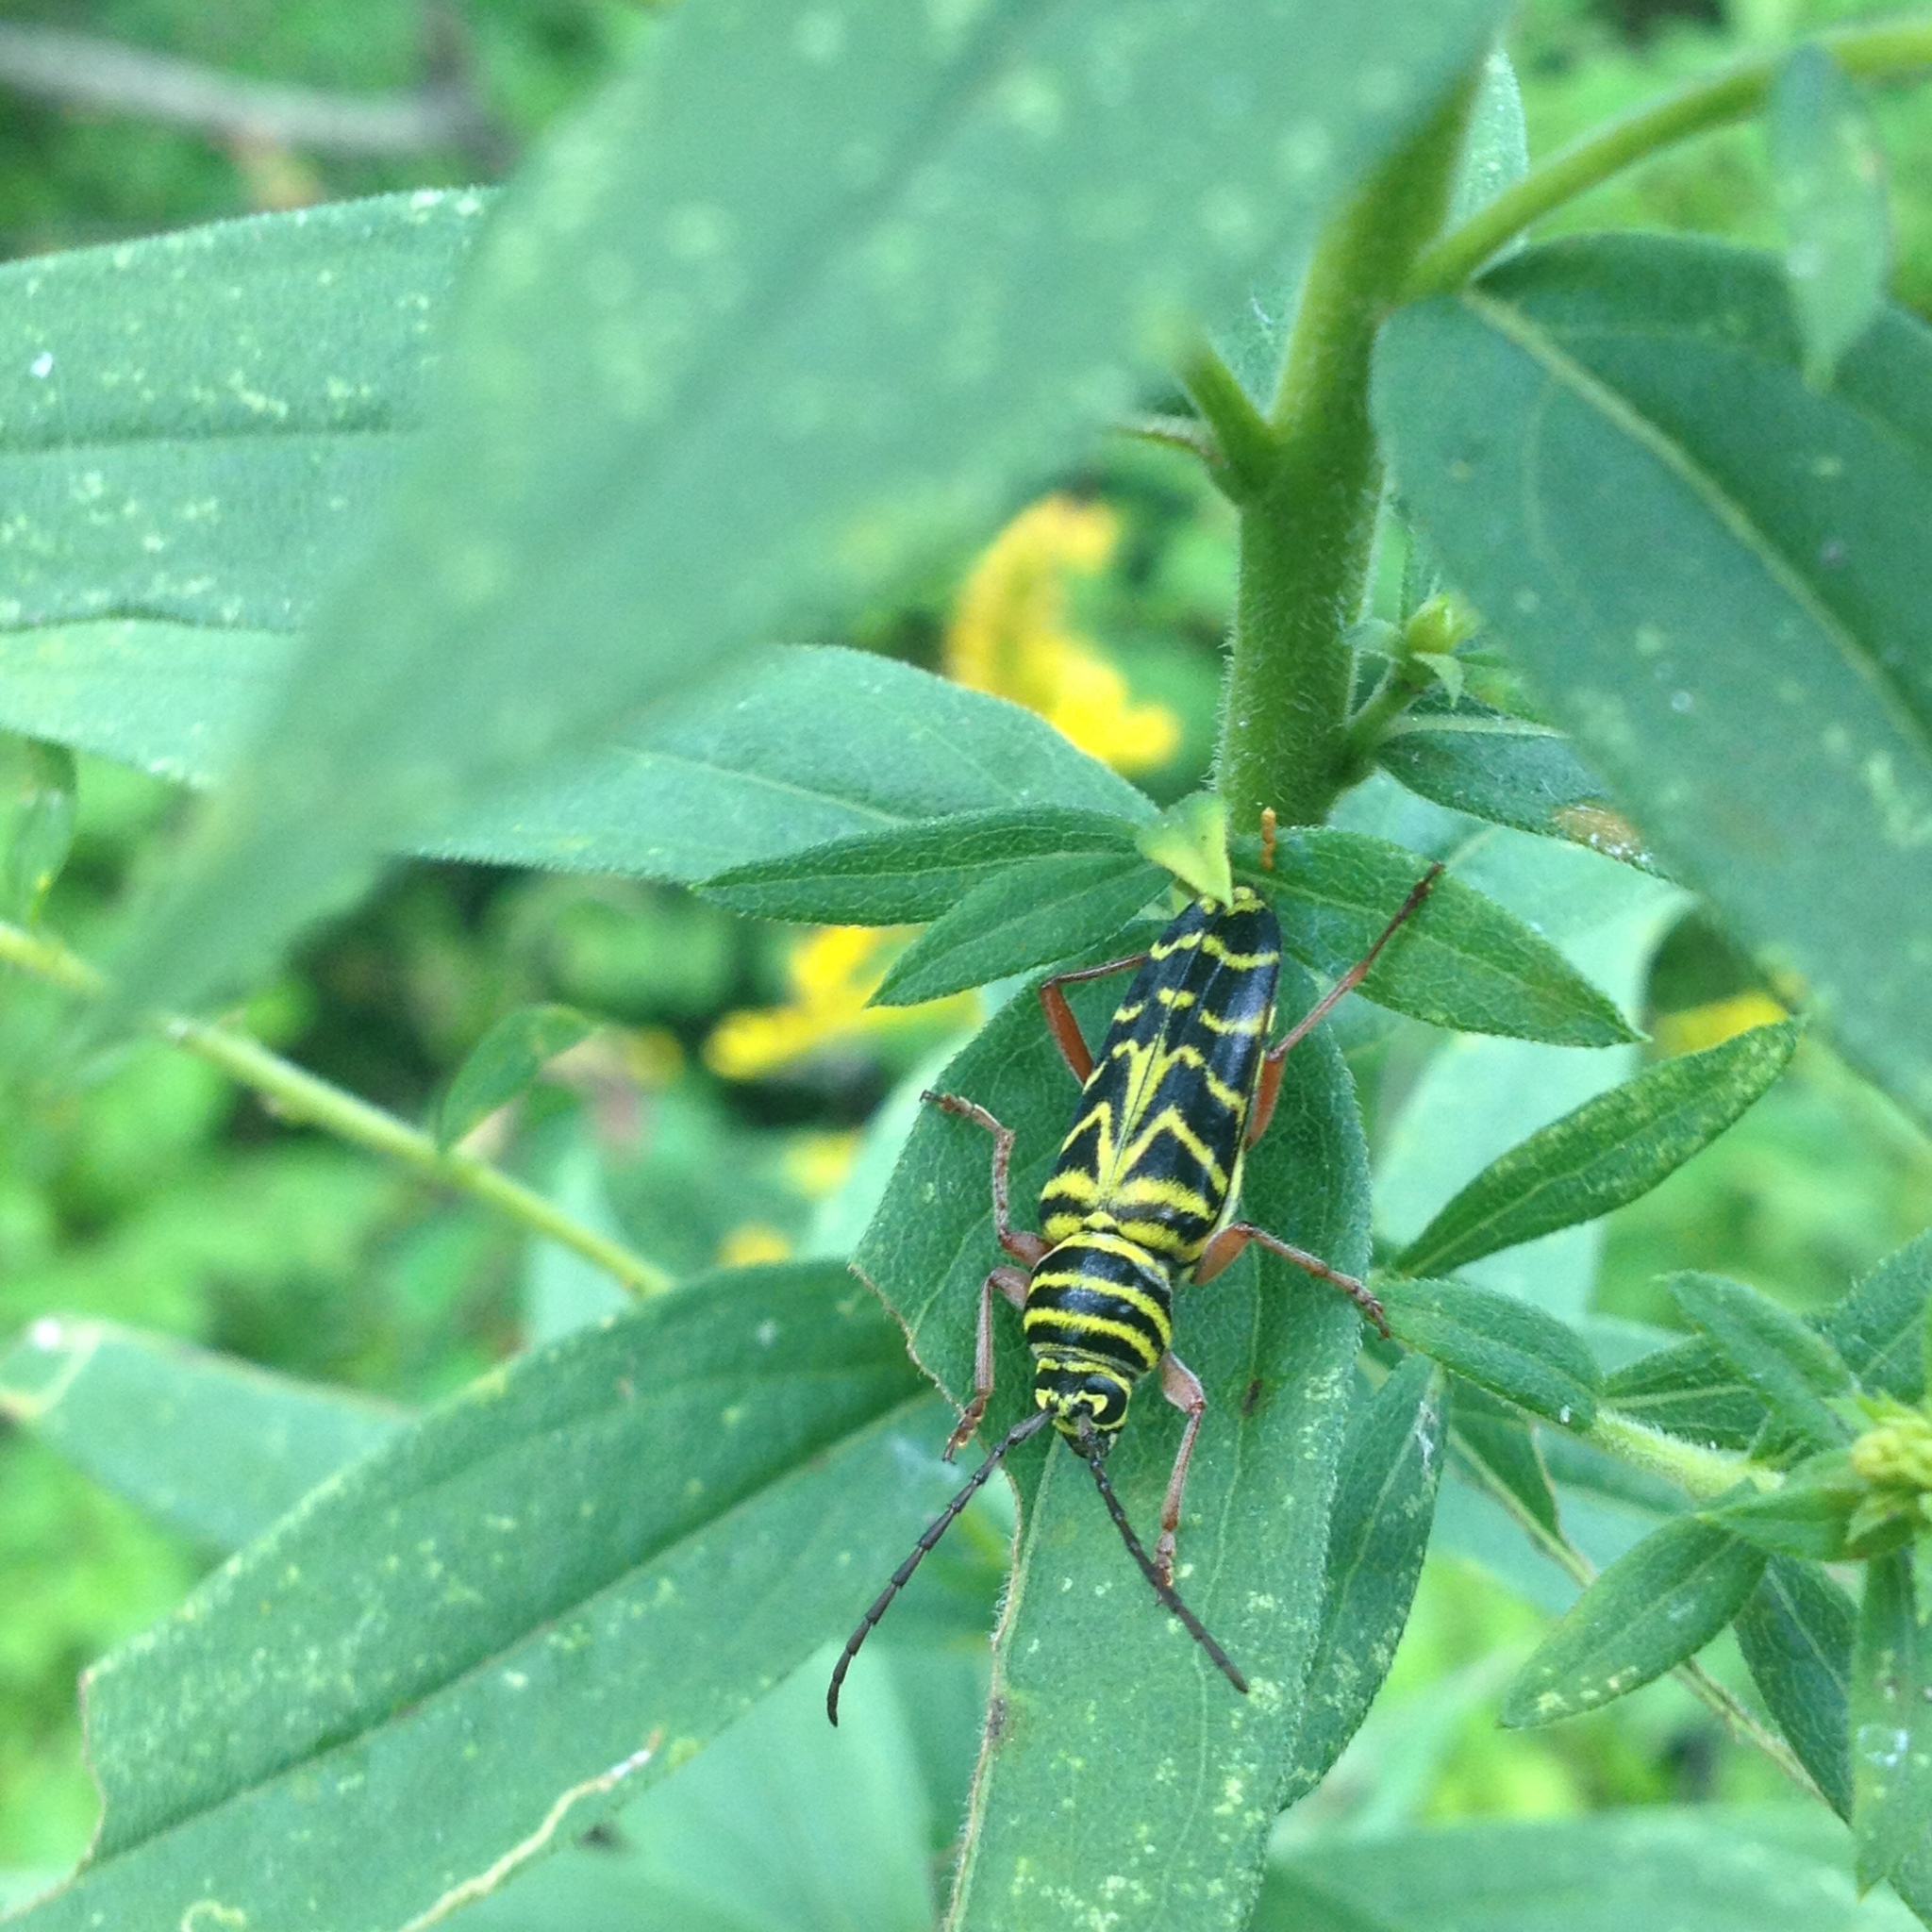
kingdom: Animalia
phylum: Arthropoda
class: Insecta
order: Coleoptera
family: Cerambycidae
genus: Megacyllene
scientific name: Megacyllene robiniae
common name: Locust borer
